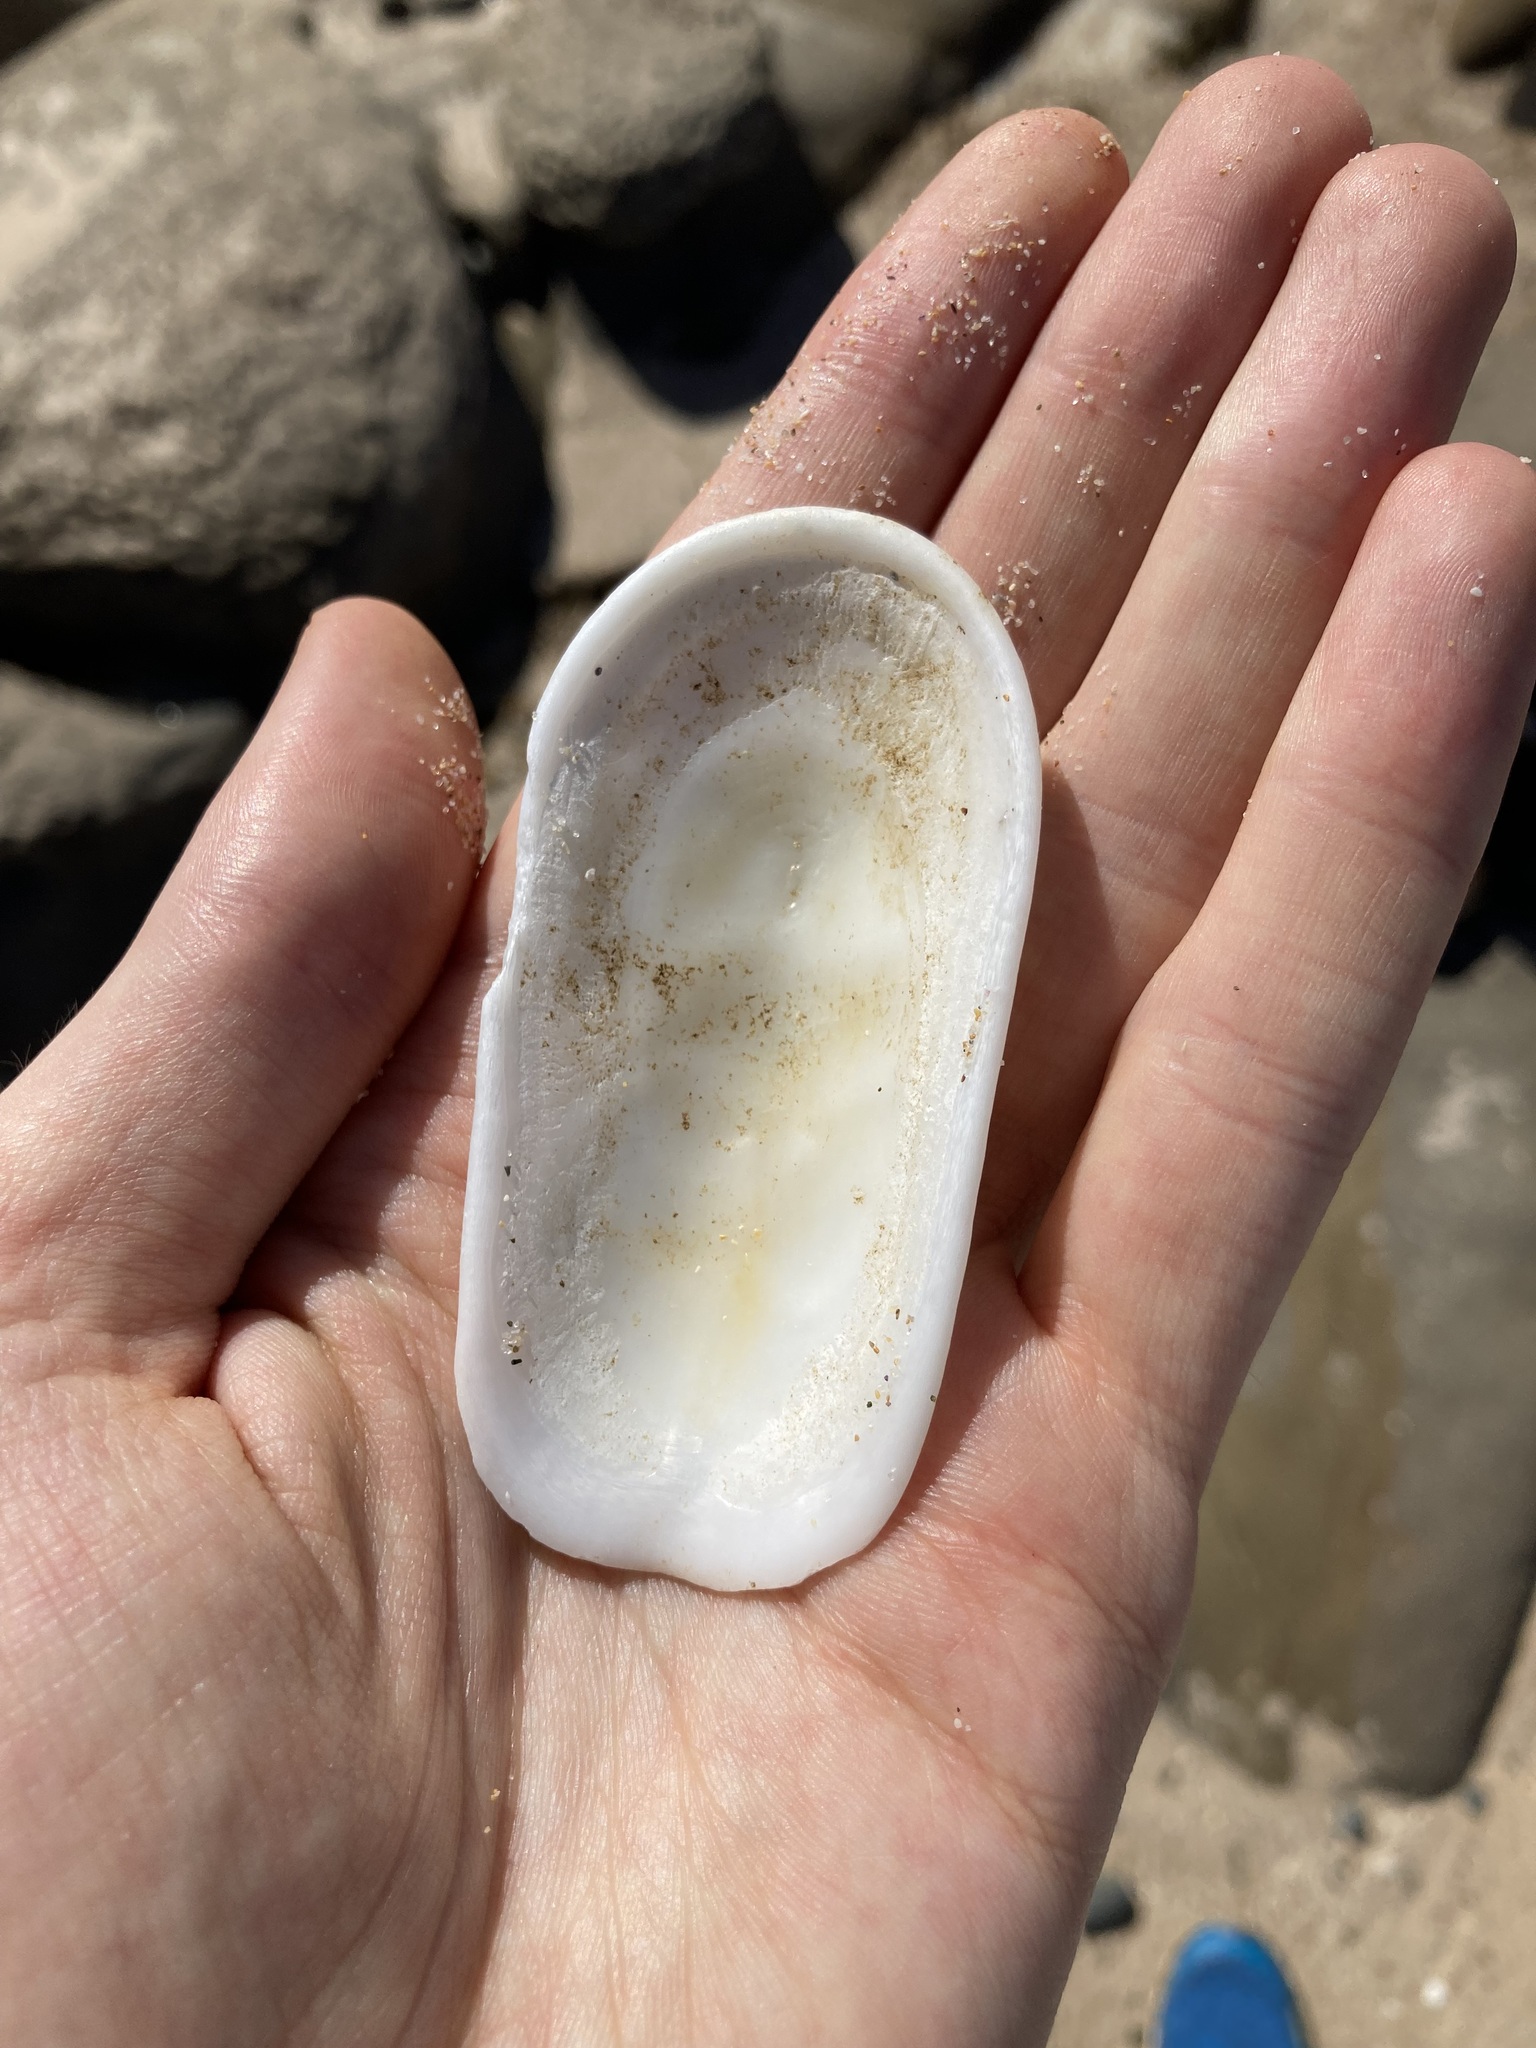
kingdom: Animalia
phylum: Mollusca
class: Gastropoda
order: Lepetellida
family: Fissurellidae
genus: Scutus
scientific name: Scutus antipodes
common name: Duckbill shell
